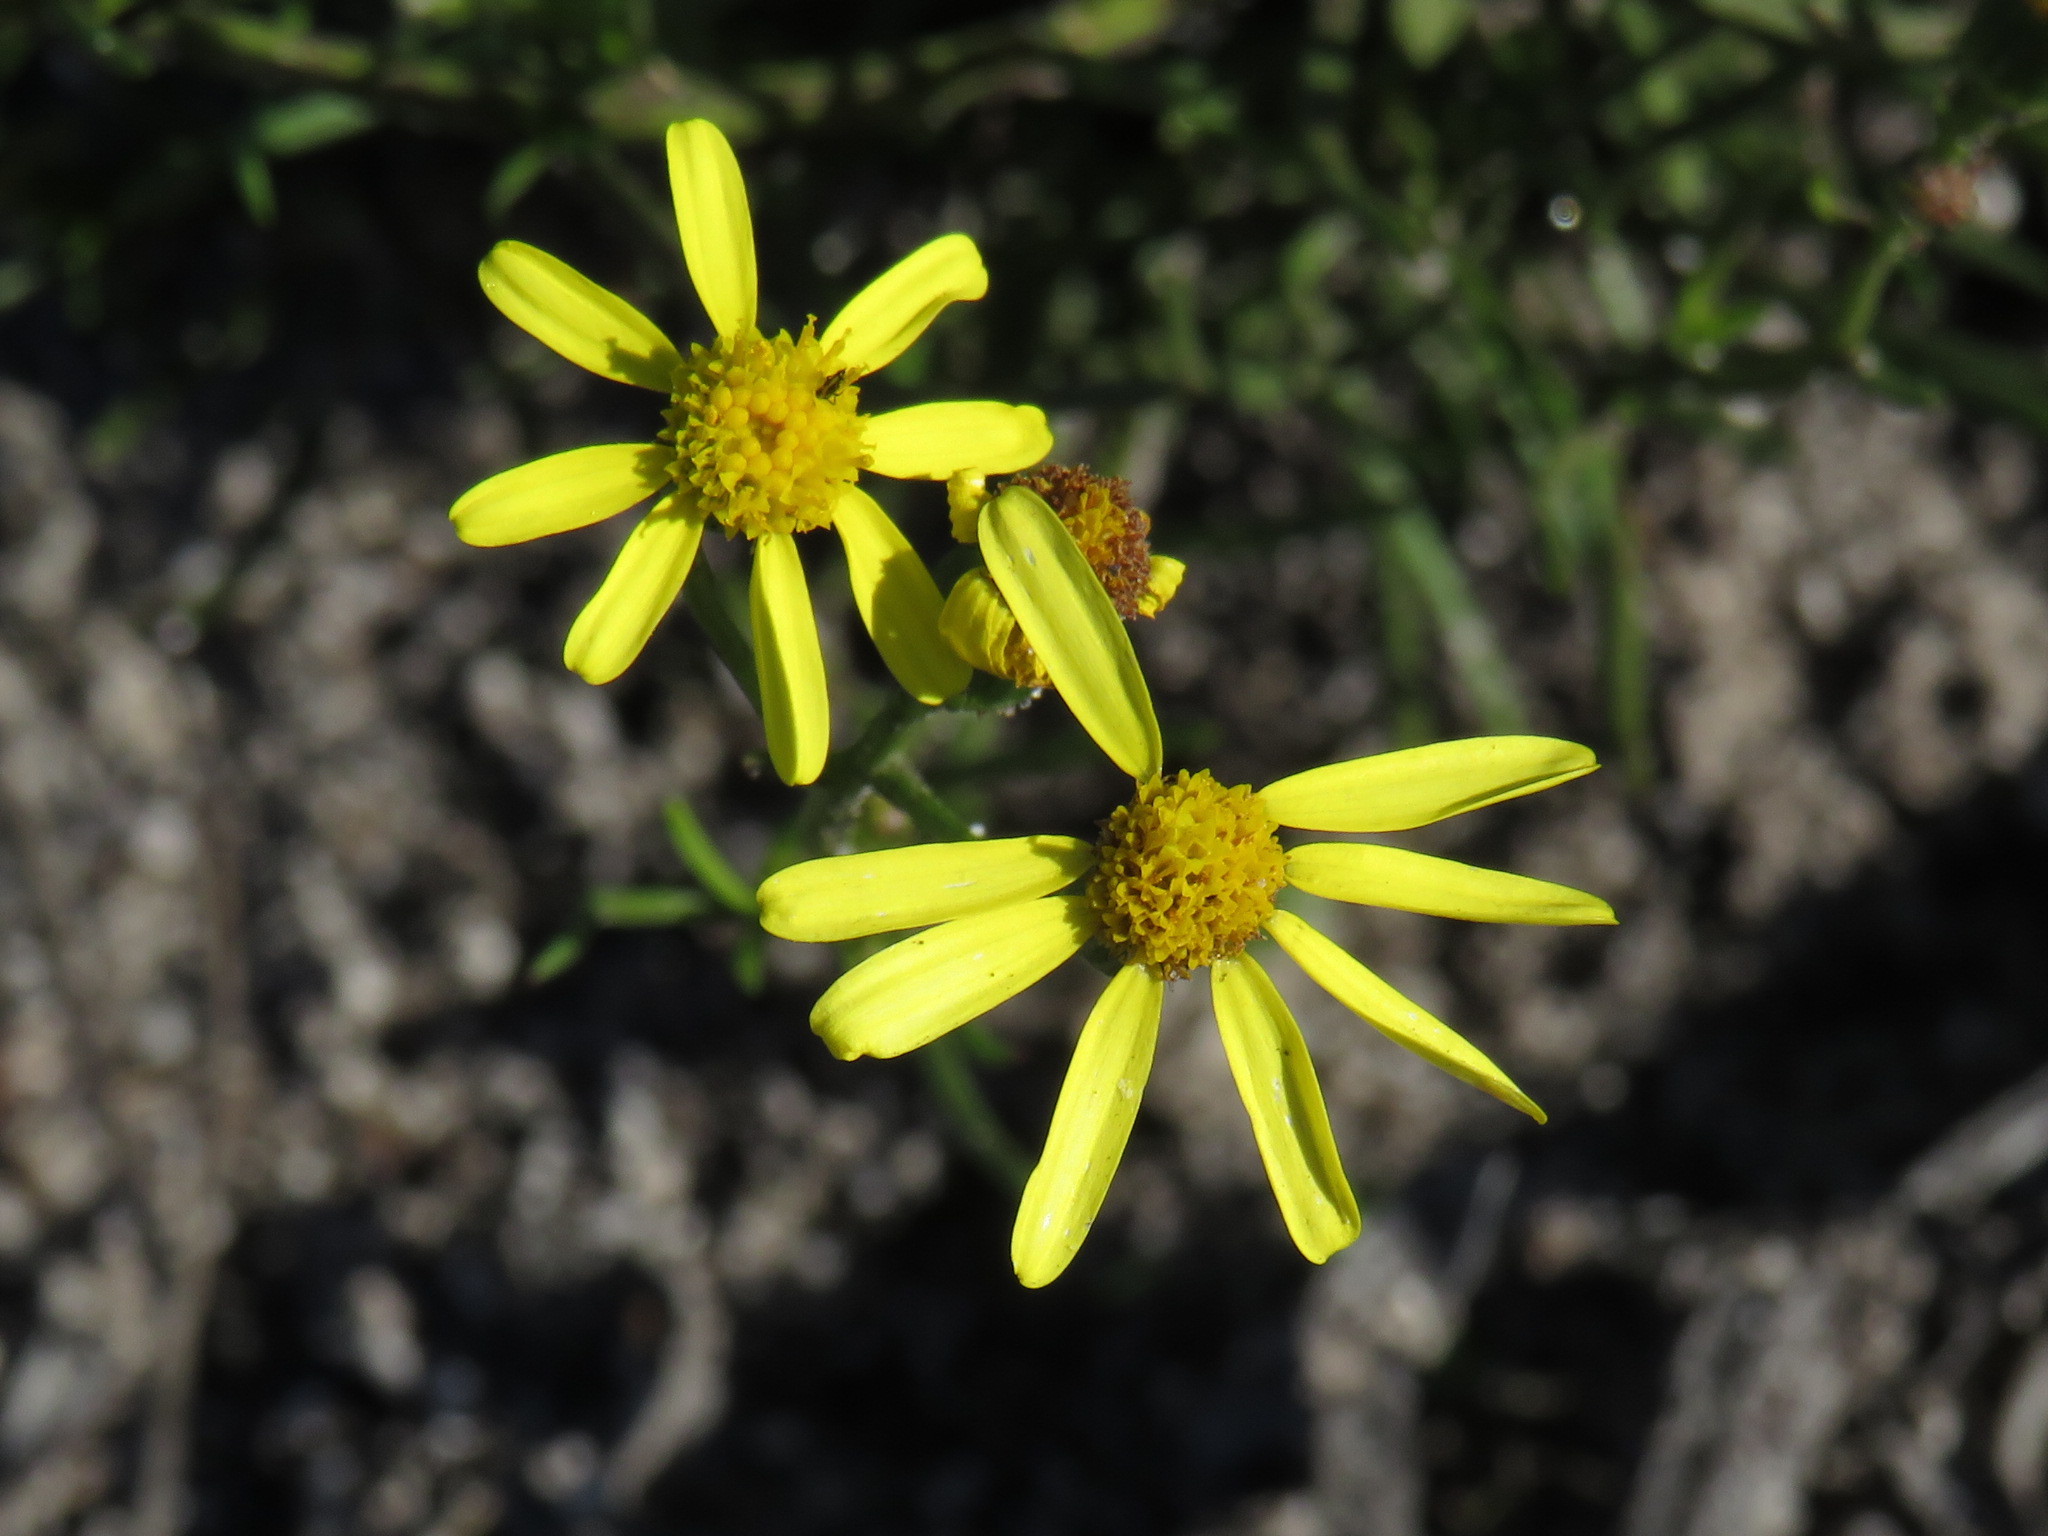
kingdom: Plantae
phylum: Tracheophyta
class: Magnoliopsida
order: Asterales
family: Asteraceae
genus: Senecio
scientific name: Senecio burchellii
